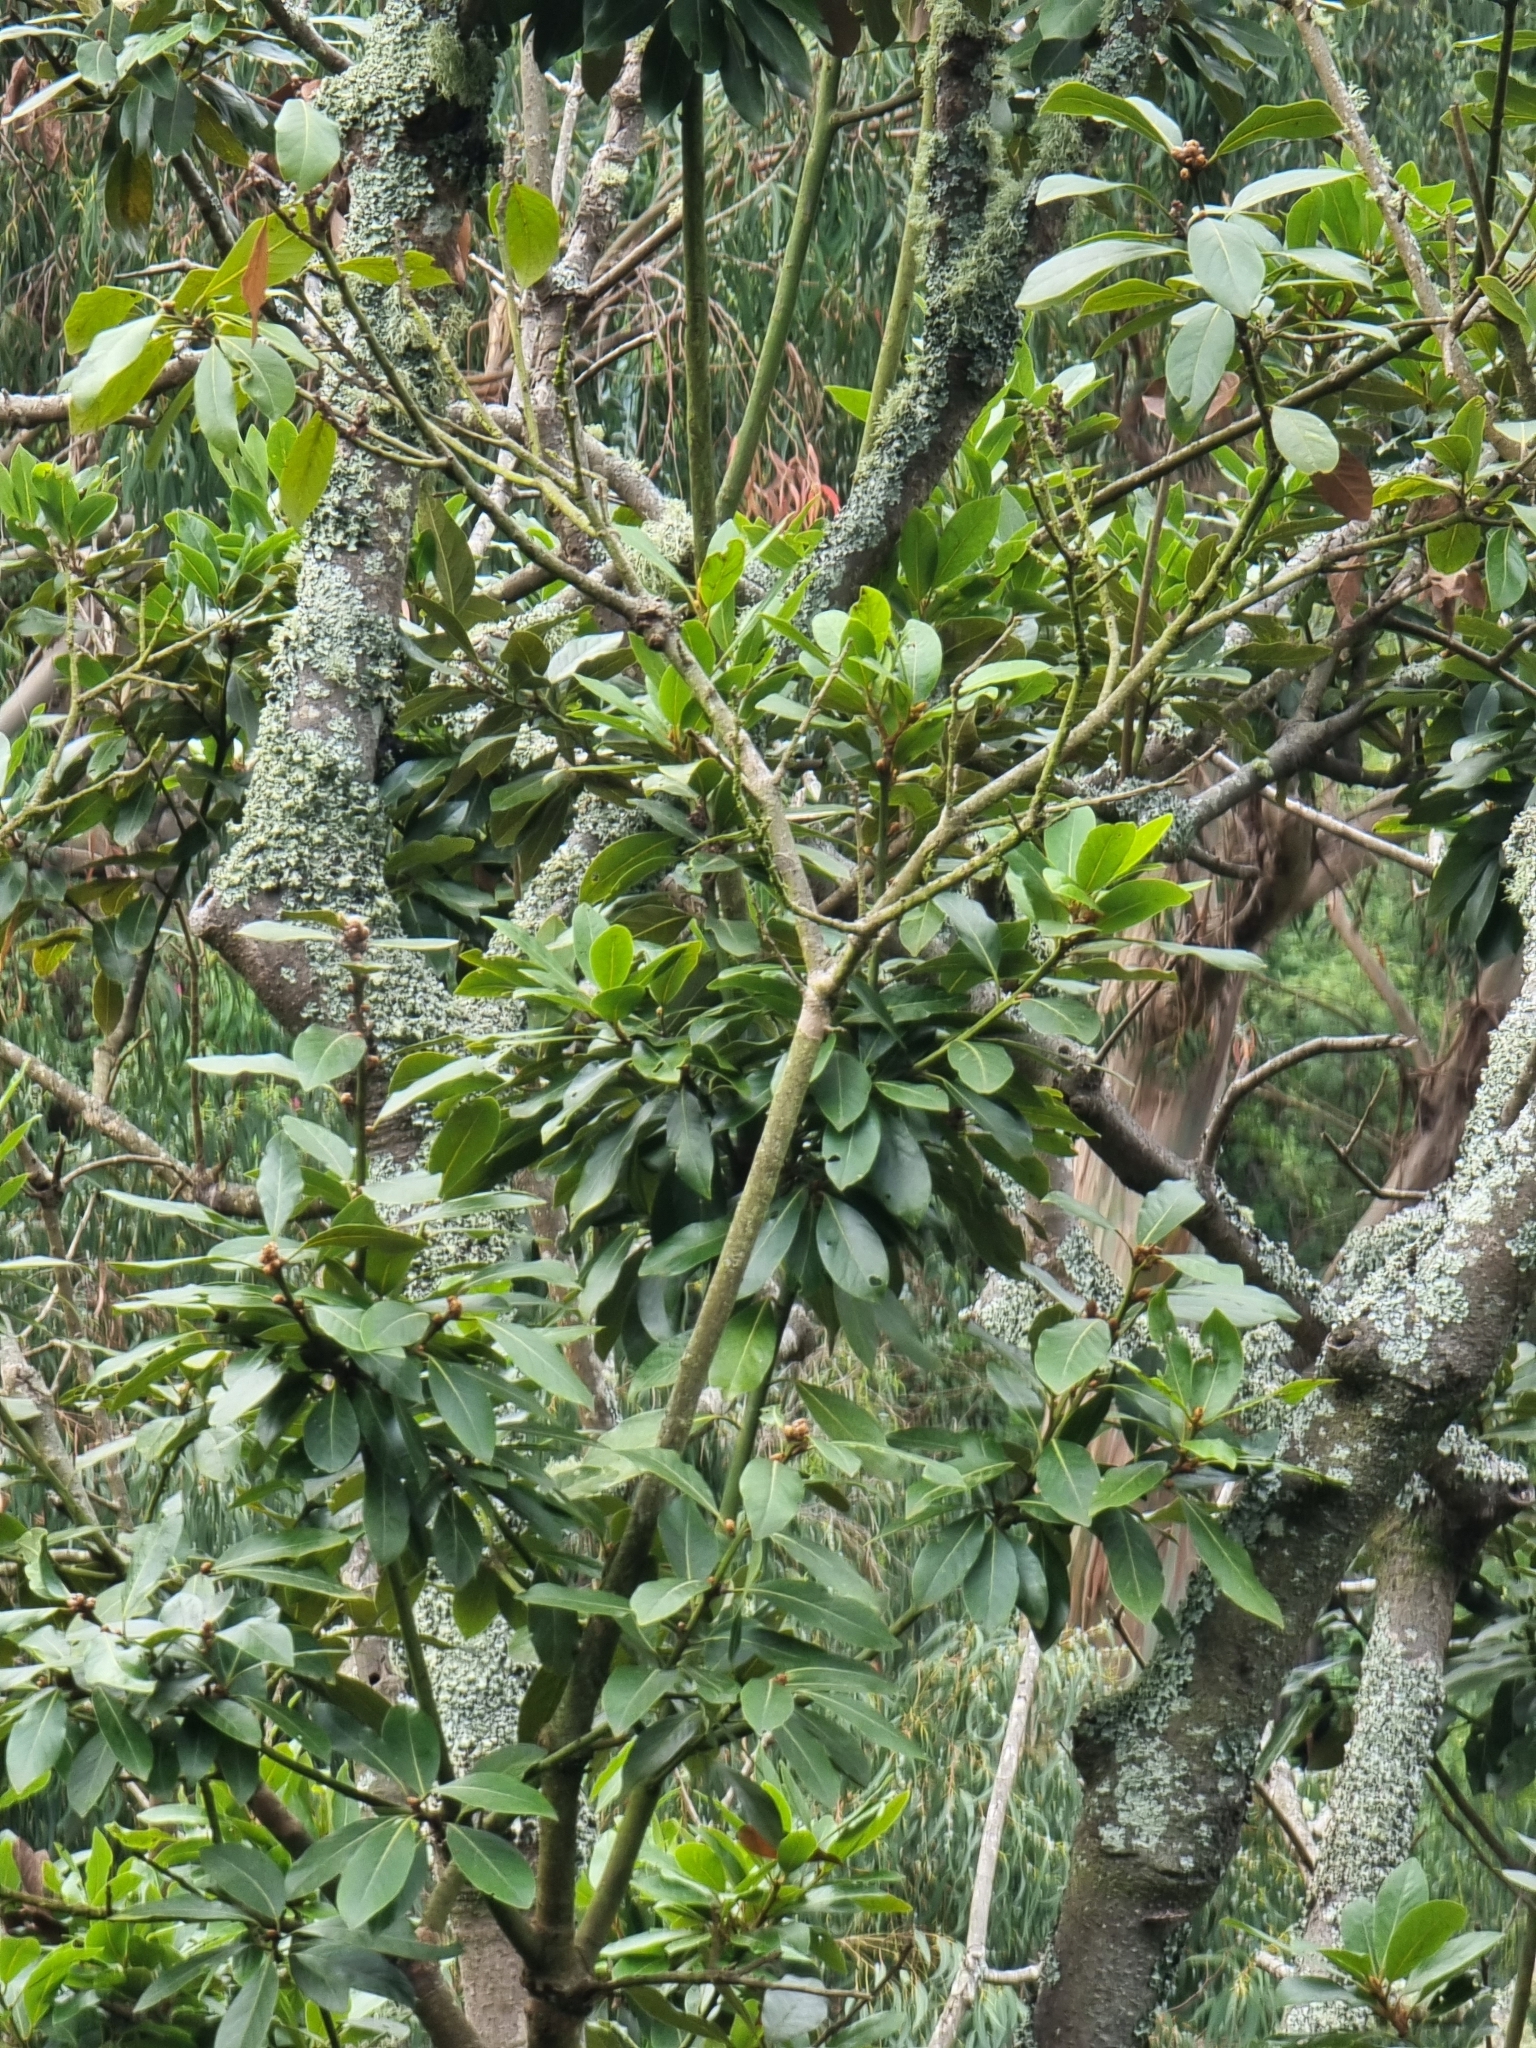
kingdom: Plantae
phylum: Tracheophyta
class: Magnoliopsida
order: Laurales
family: Lauraceae
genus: Laurus
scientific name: Laurus novocanariensis
